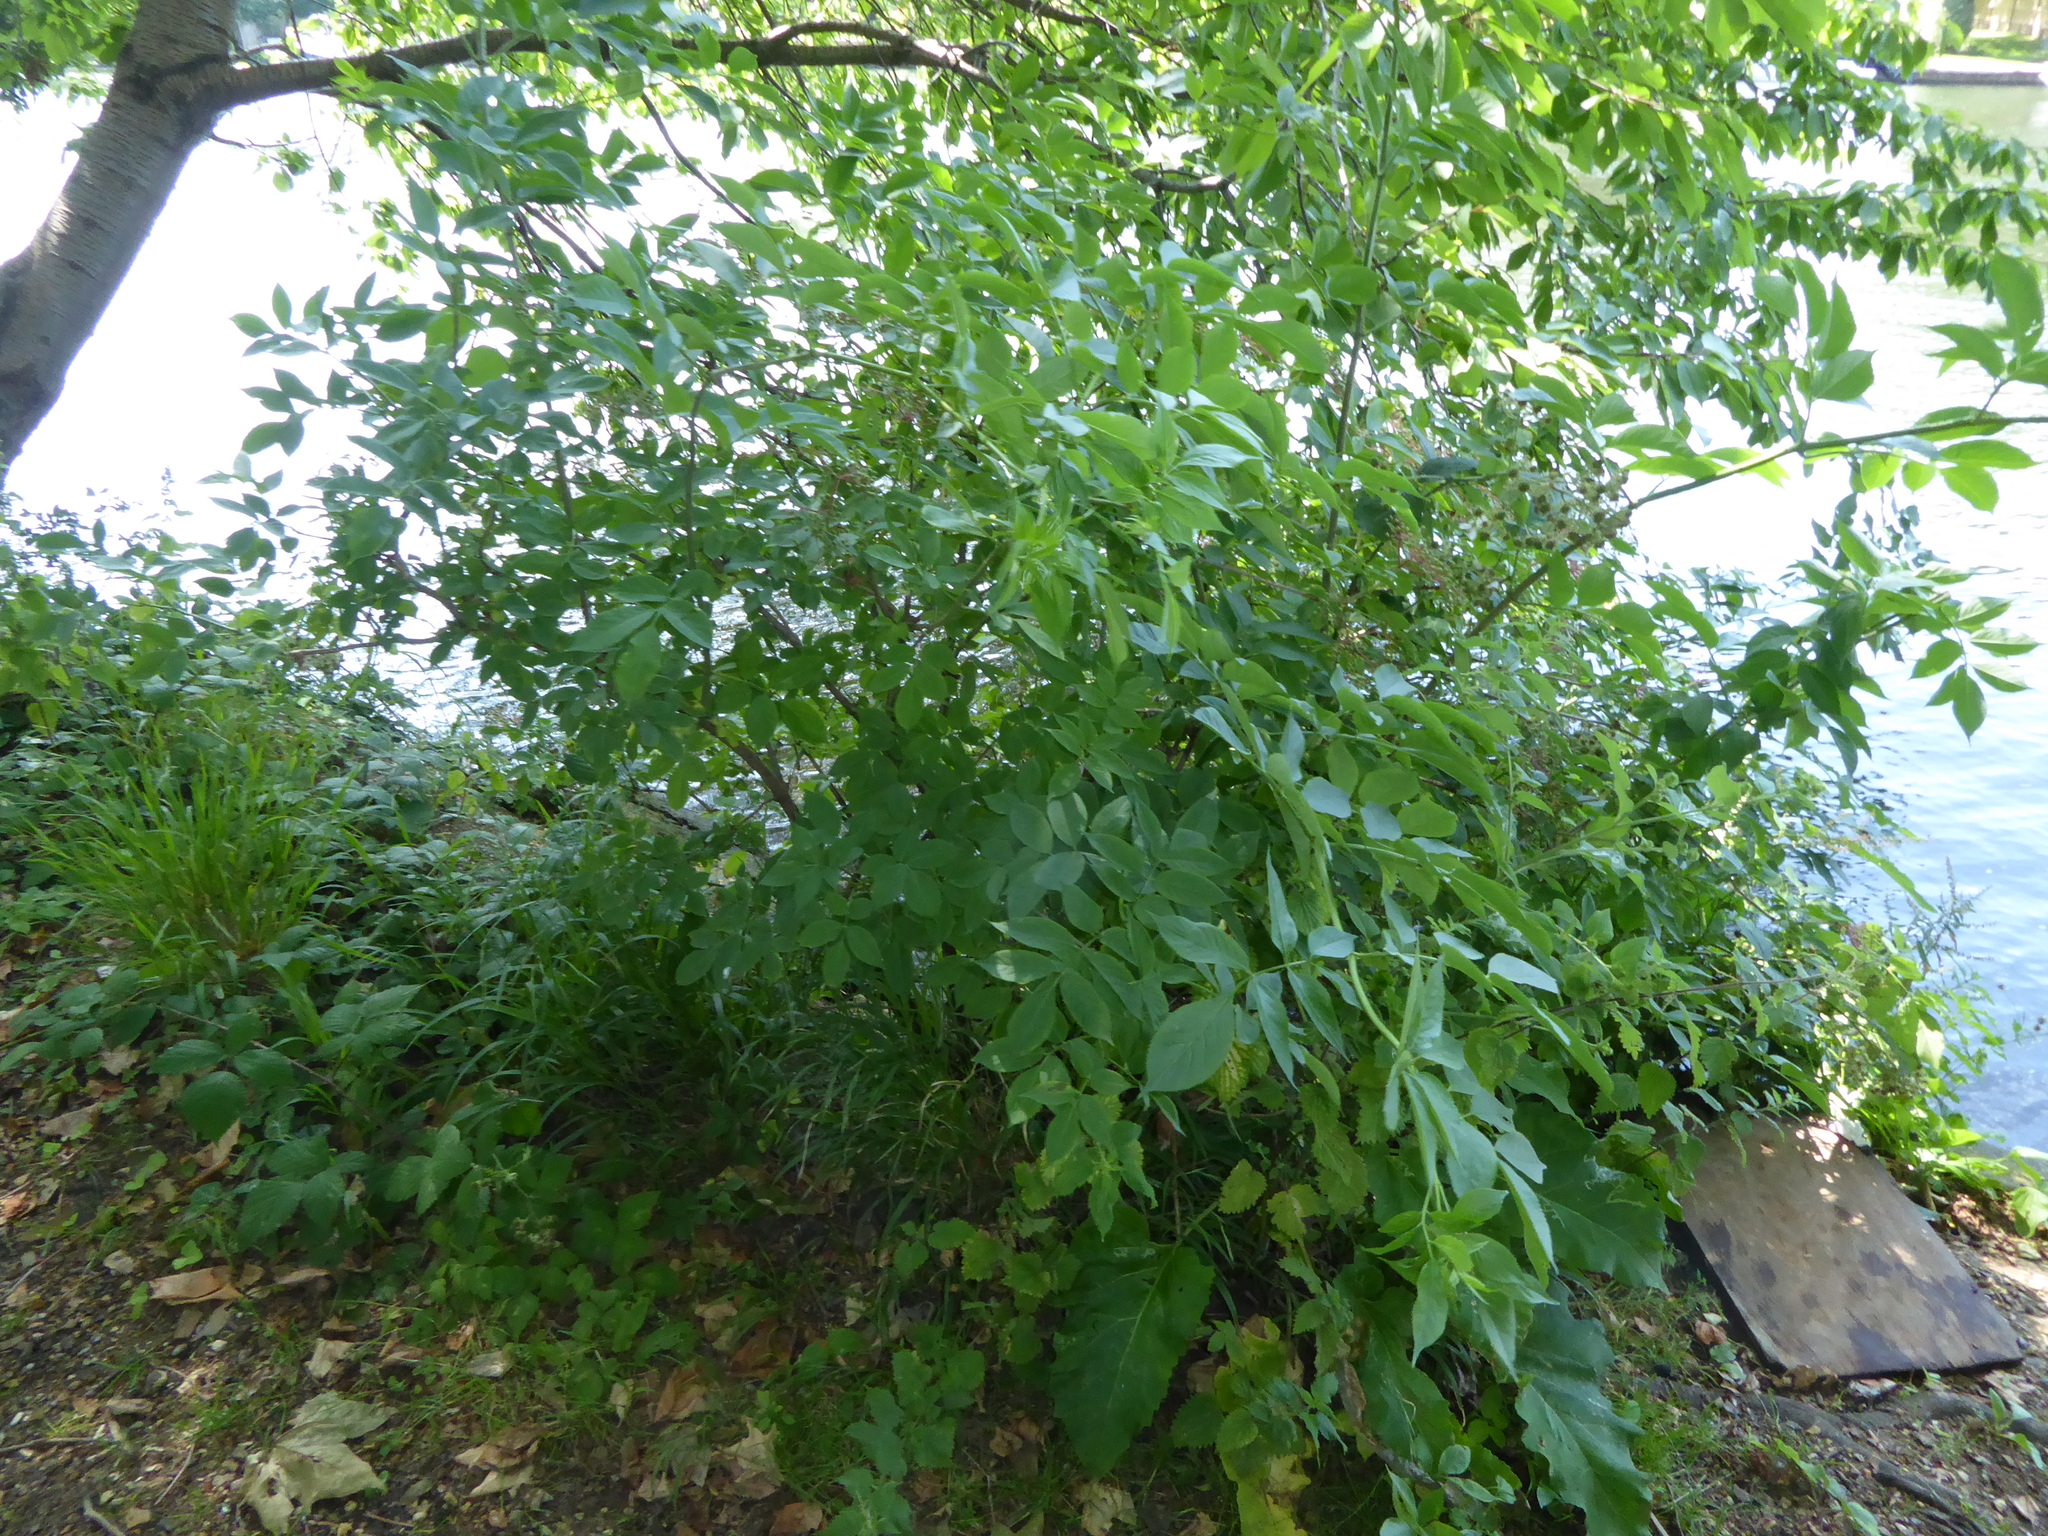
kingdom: Plantae
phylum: Tracheophyta
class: Magnoliopsida
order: Dipsacales
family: Viburnaceae
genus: Sambucus
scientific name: Sambucus nigra
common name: Elder
